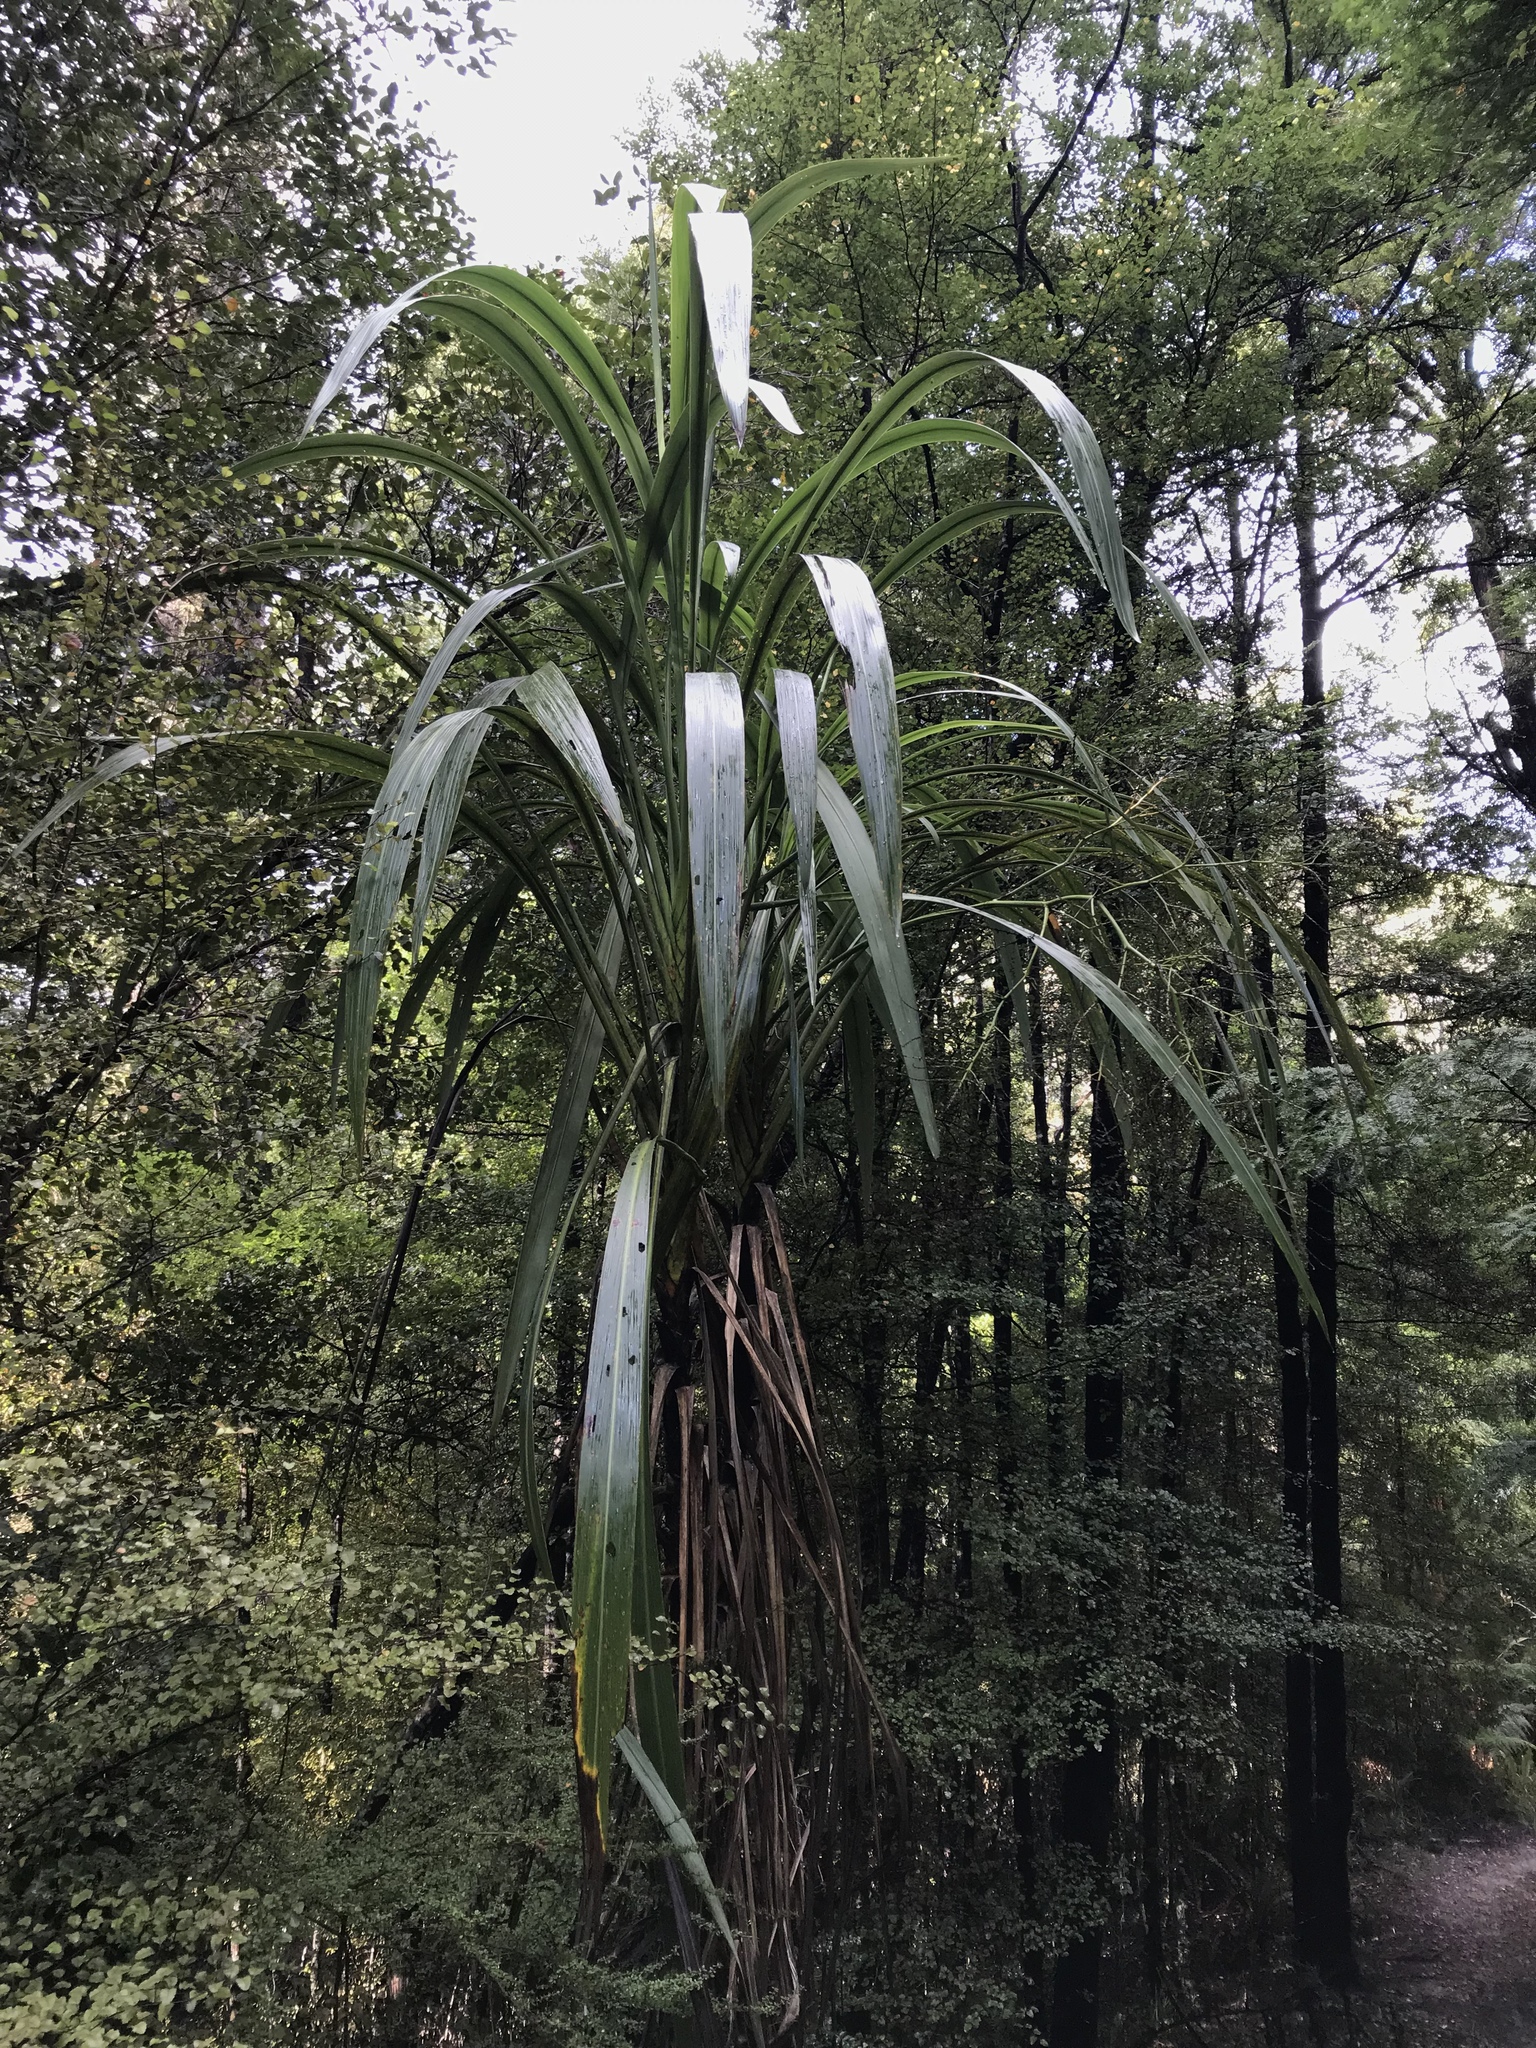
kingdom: Plantae
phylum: Tracheophyta
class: Liliopsida
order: Asparagales
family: Asparagaceae
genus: Cordyline
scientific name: Cordyline banksii
